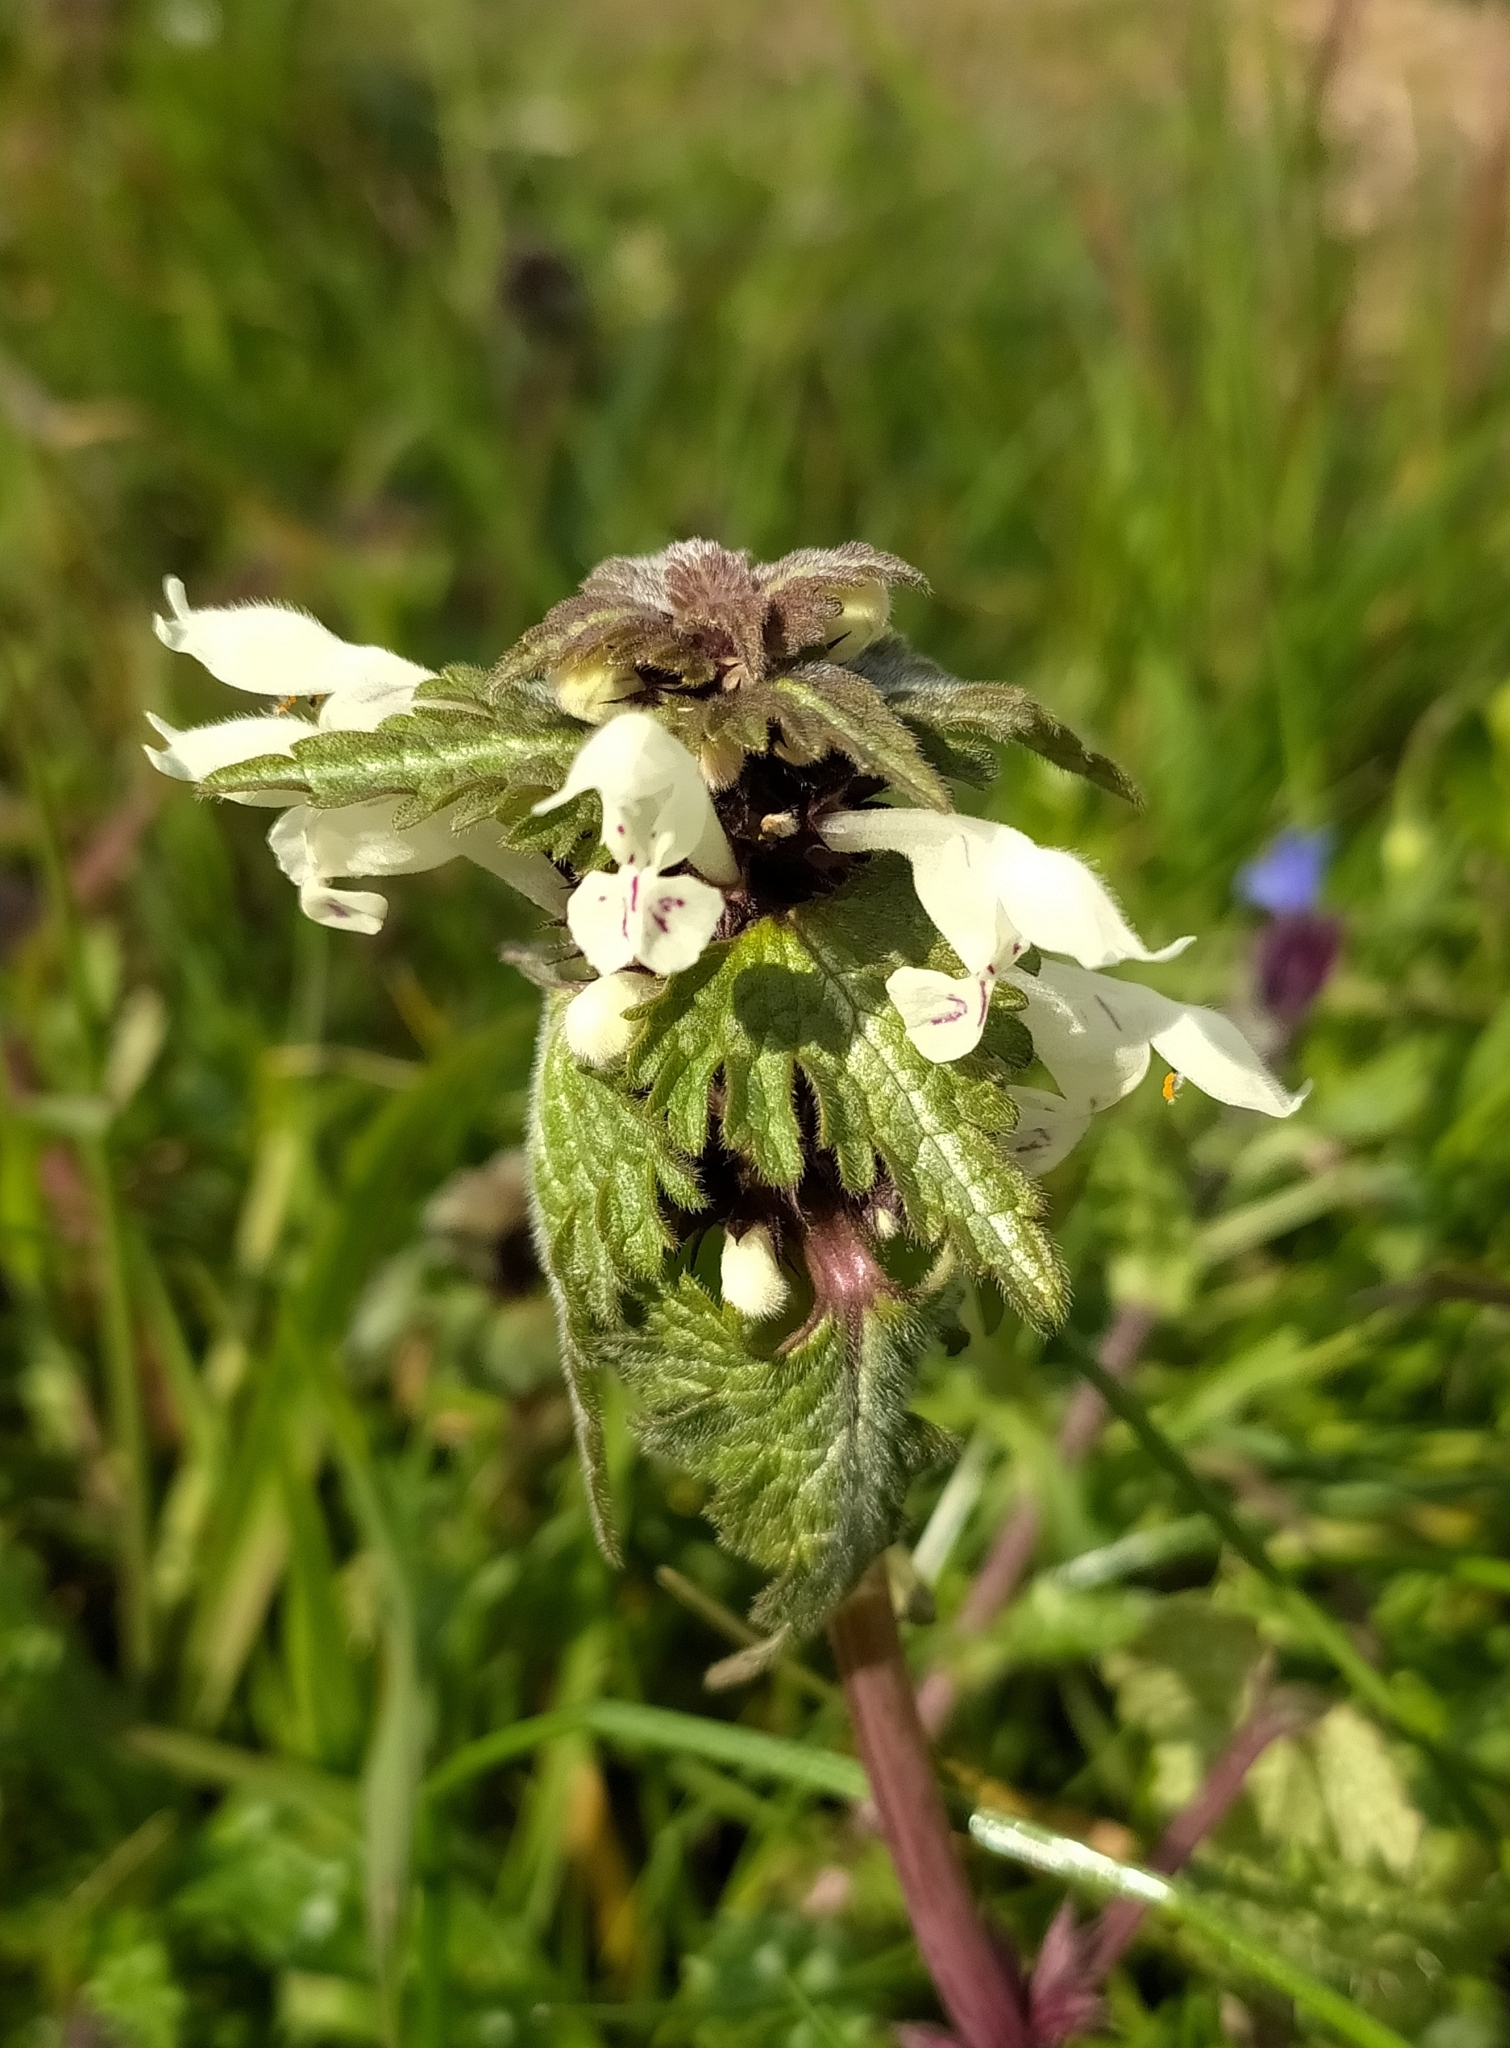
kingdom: Plantae
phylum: Tracheophyta
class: Magnoliopsida
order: Lamiales
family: Lamiaceae
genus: Lamium
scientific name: Lamium bifidum
